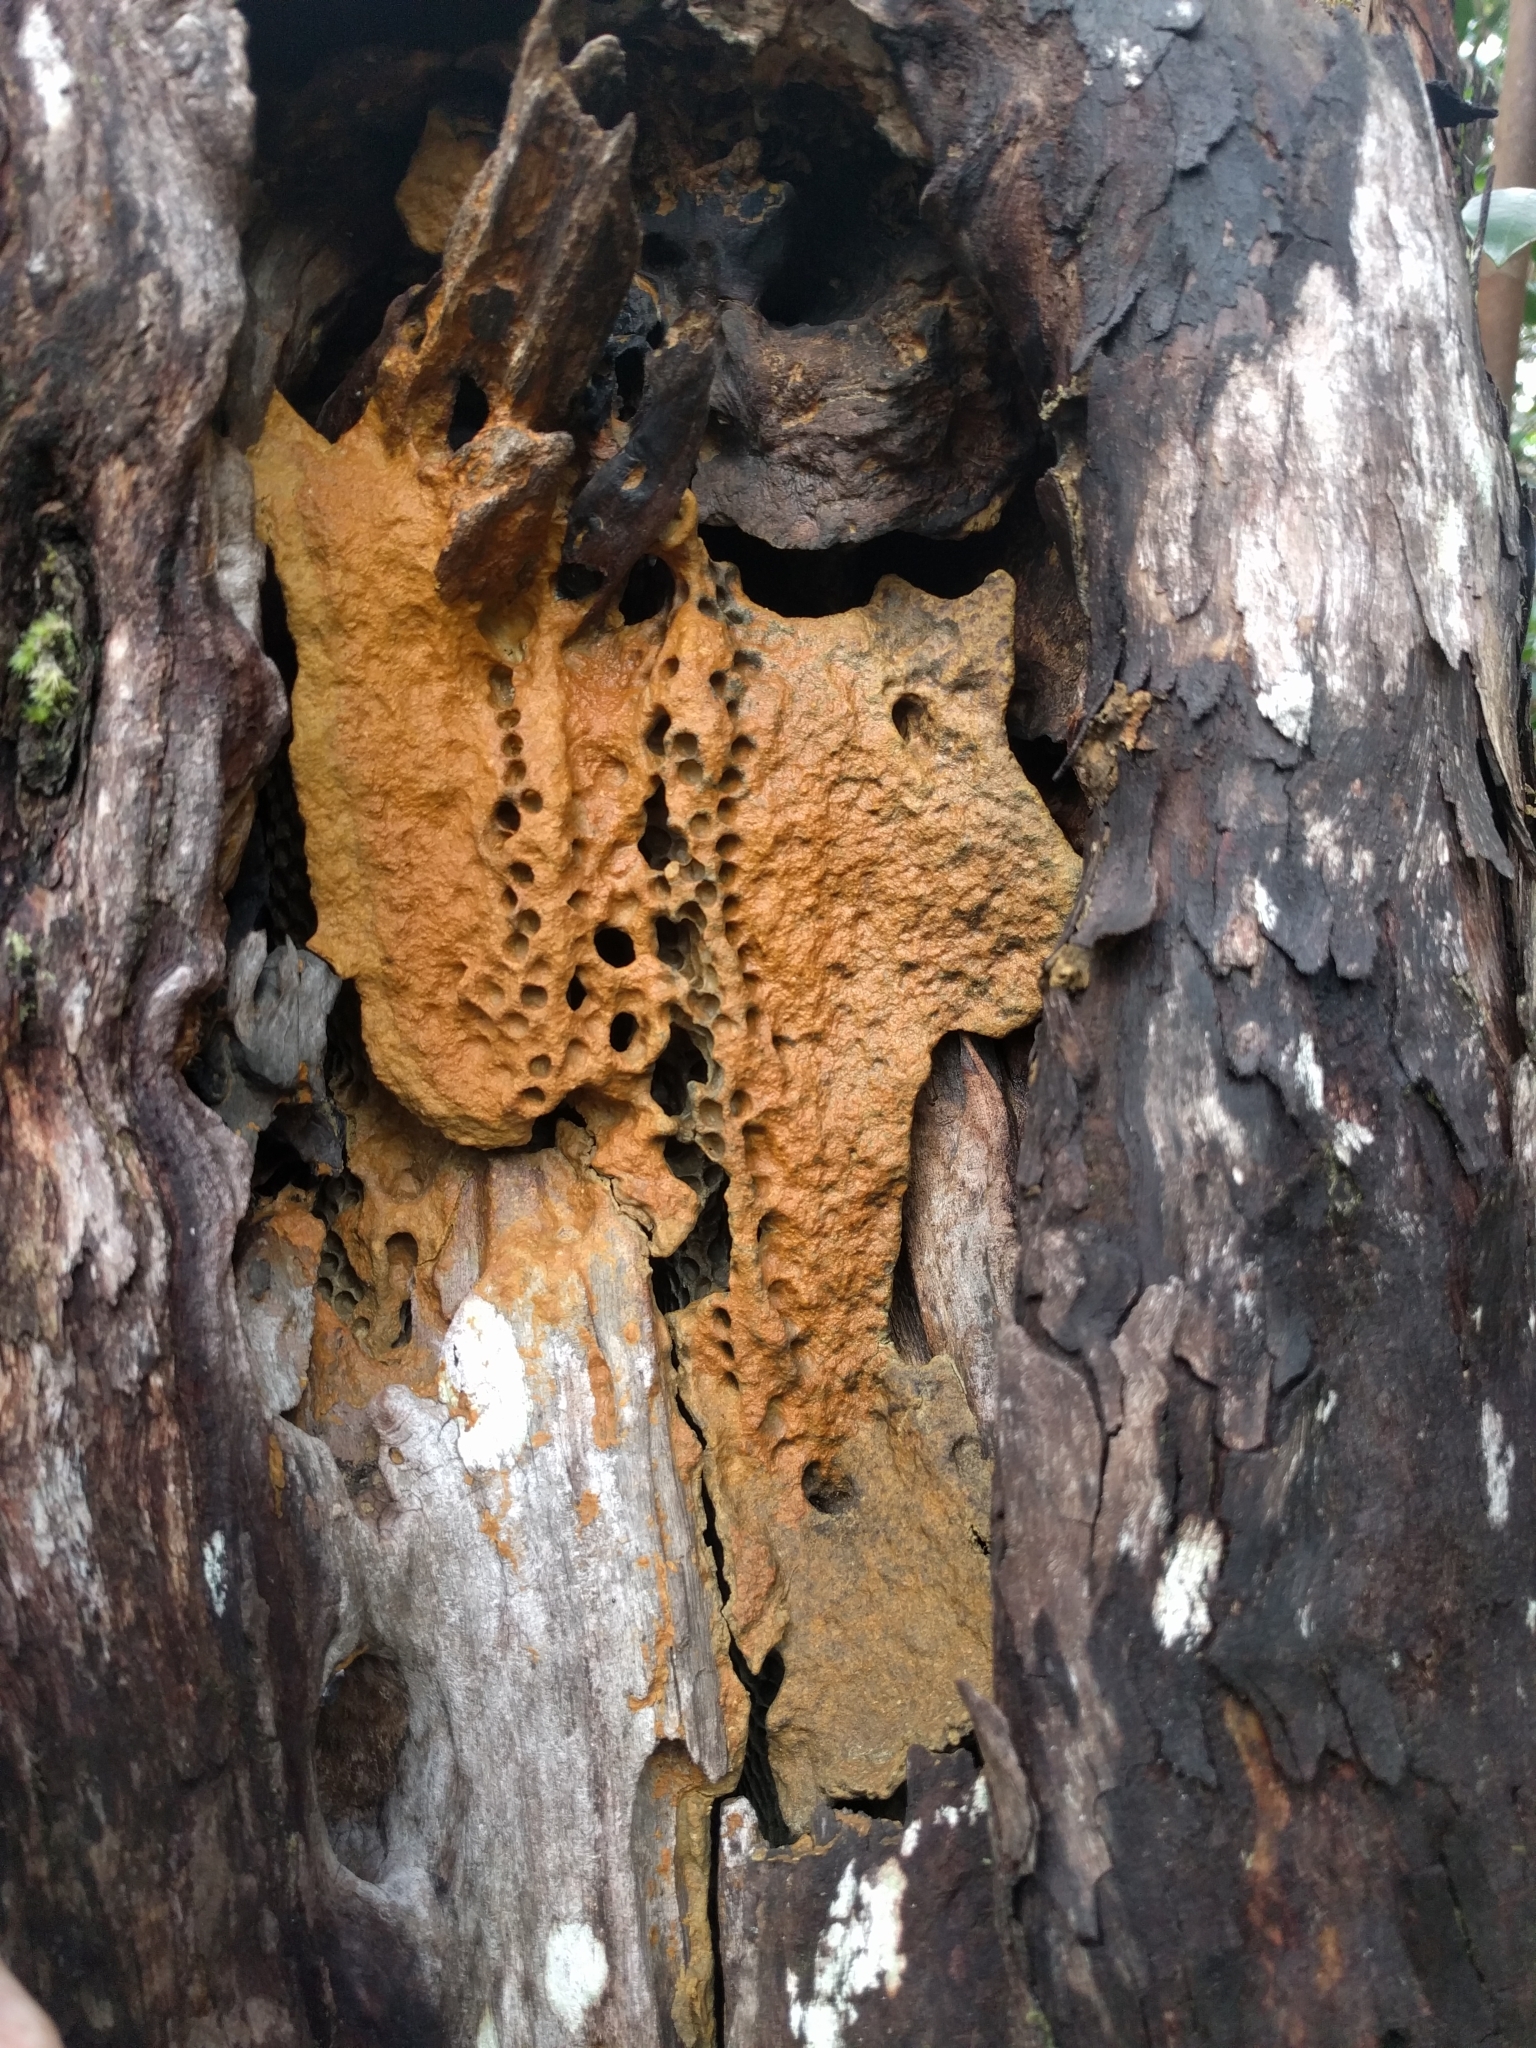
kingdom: Animalia
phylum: Arthropoda
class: Insecta
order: Hymenoptera
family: Apidae
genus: Apis
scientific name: Apis mellifera
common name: Honey bee
